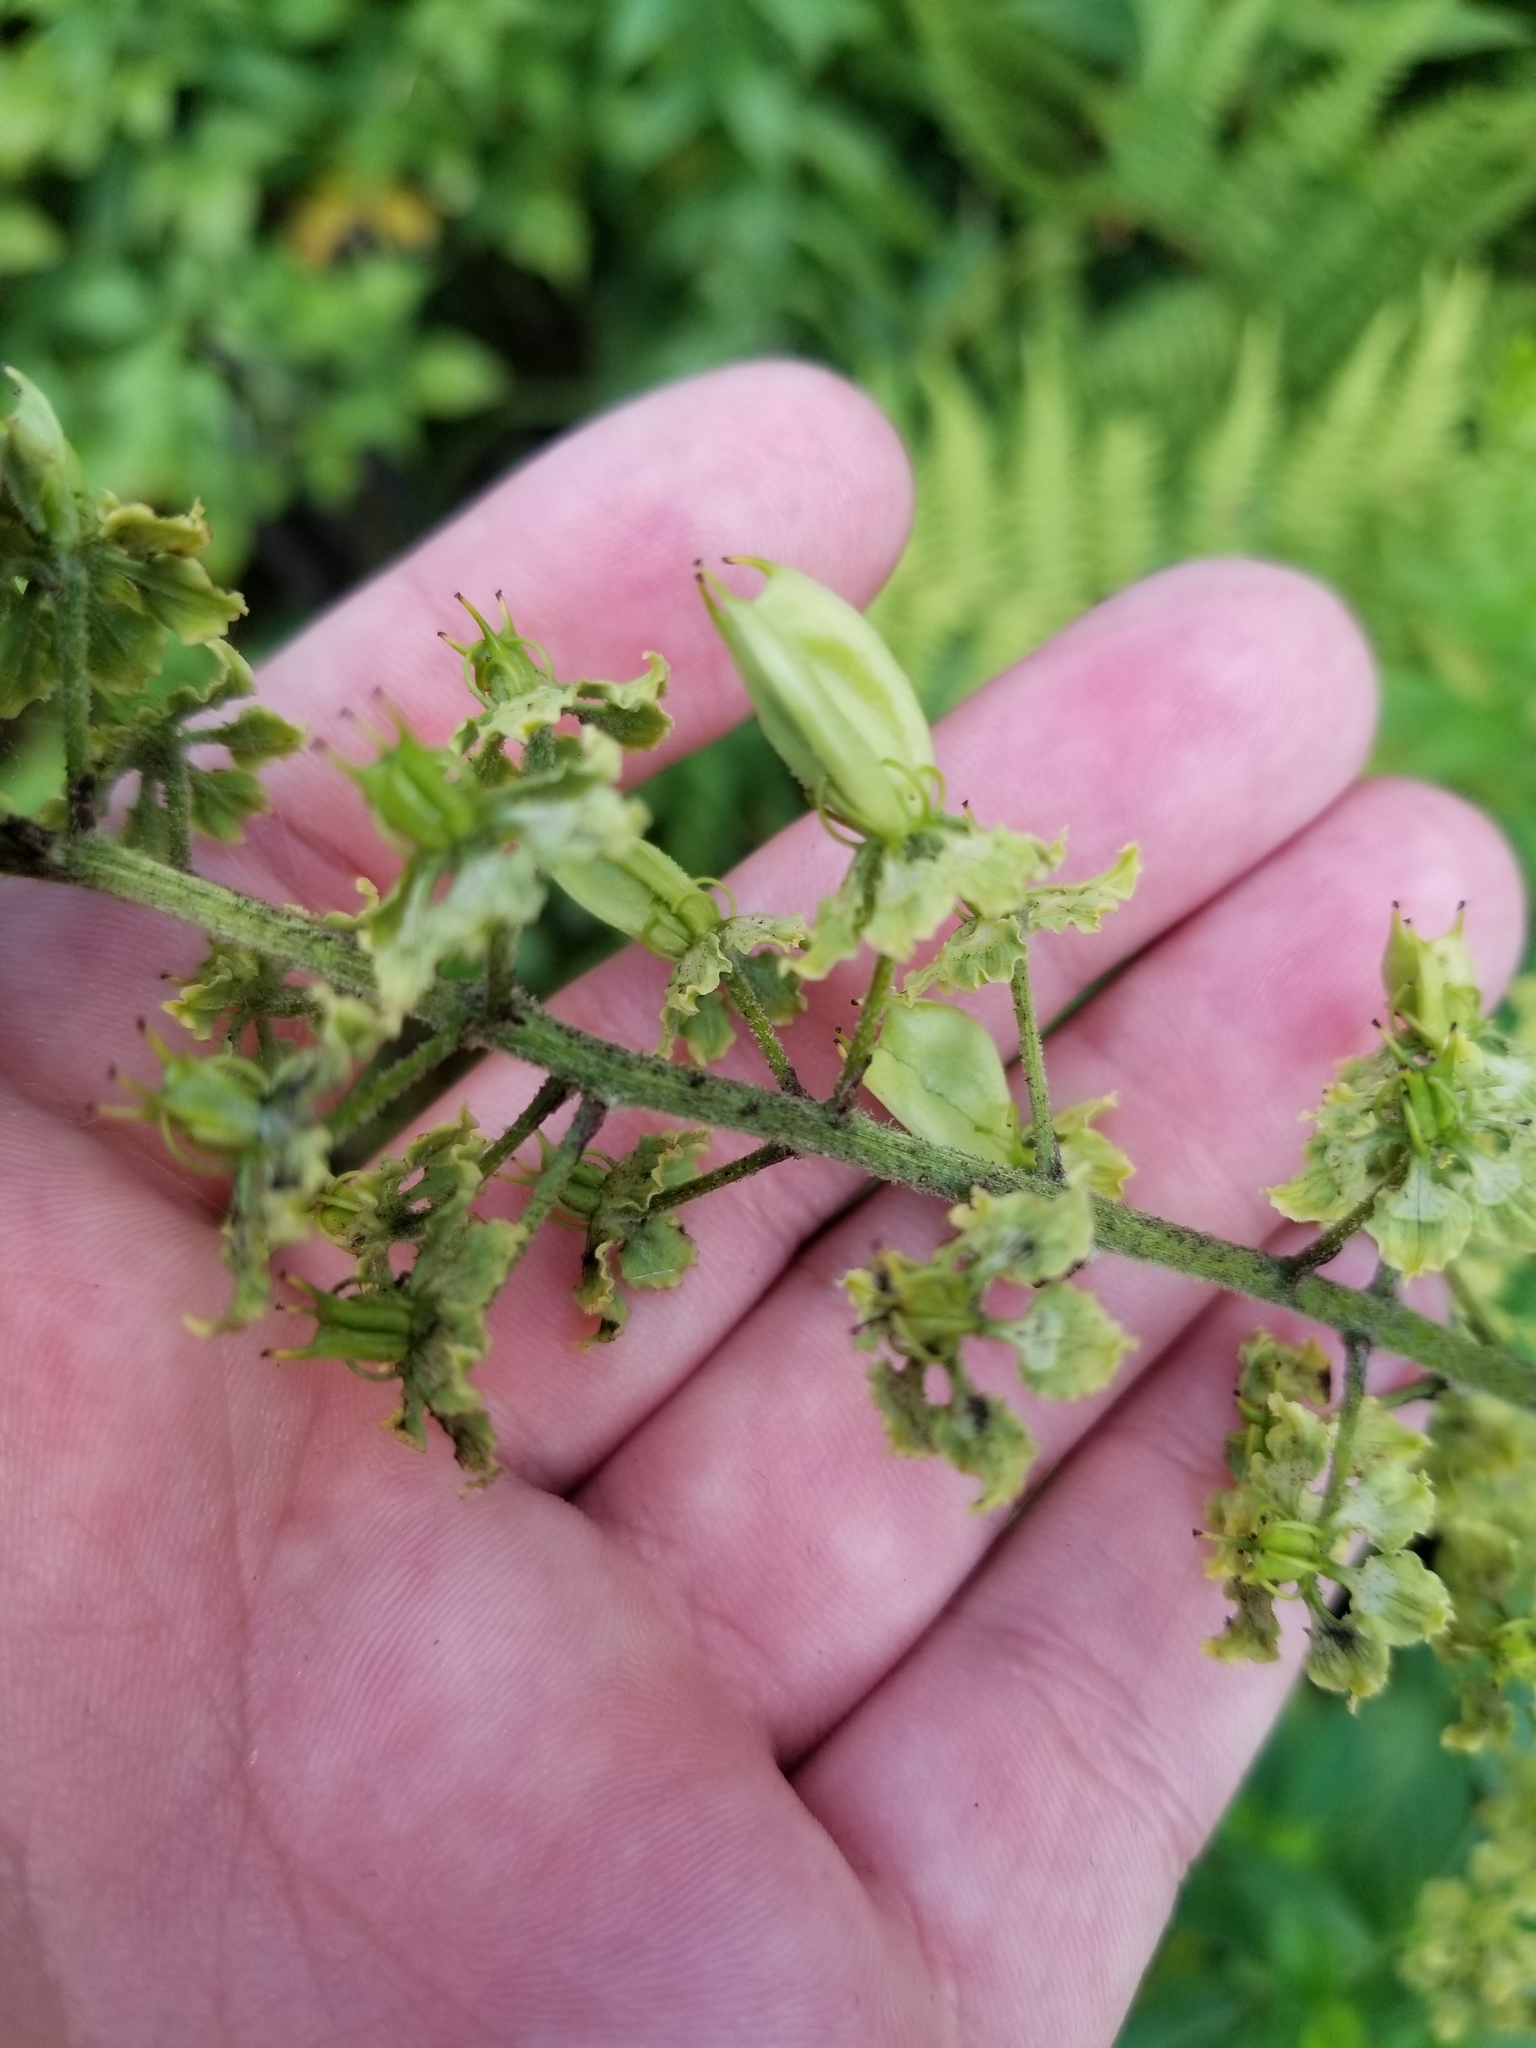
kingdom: Plantae
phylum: Tracheophyta
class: Liliopsida
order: Liliales
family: Melanthiaceae
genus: Veratrum
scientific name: Veratrum hybridum
